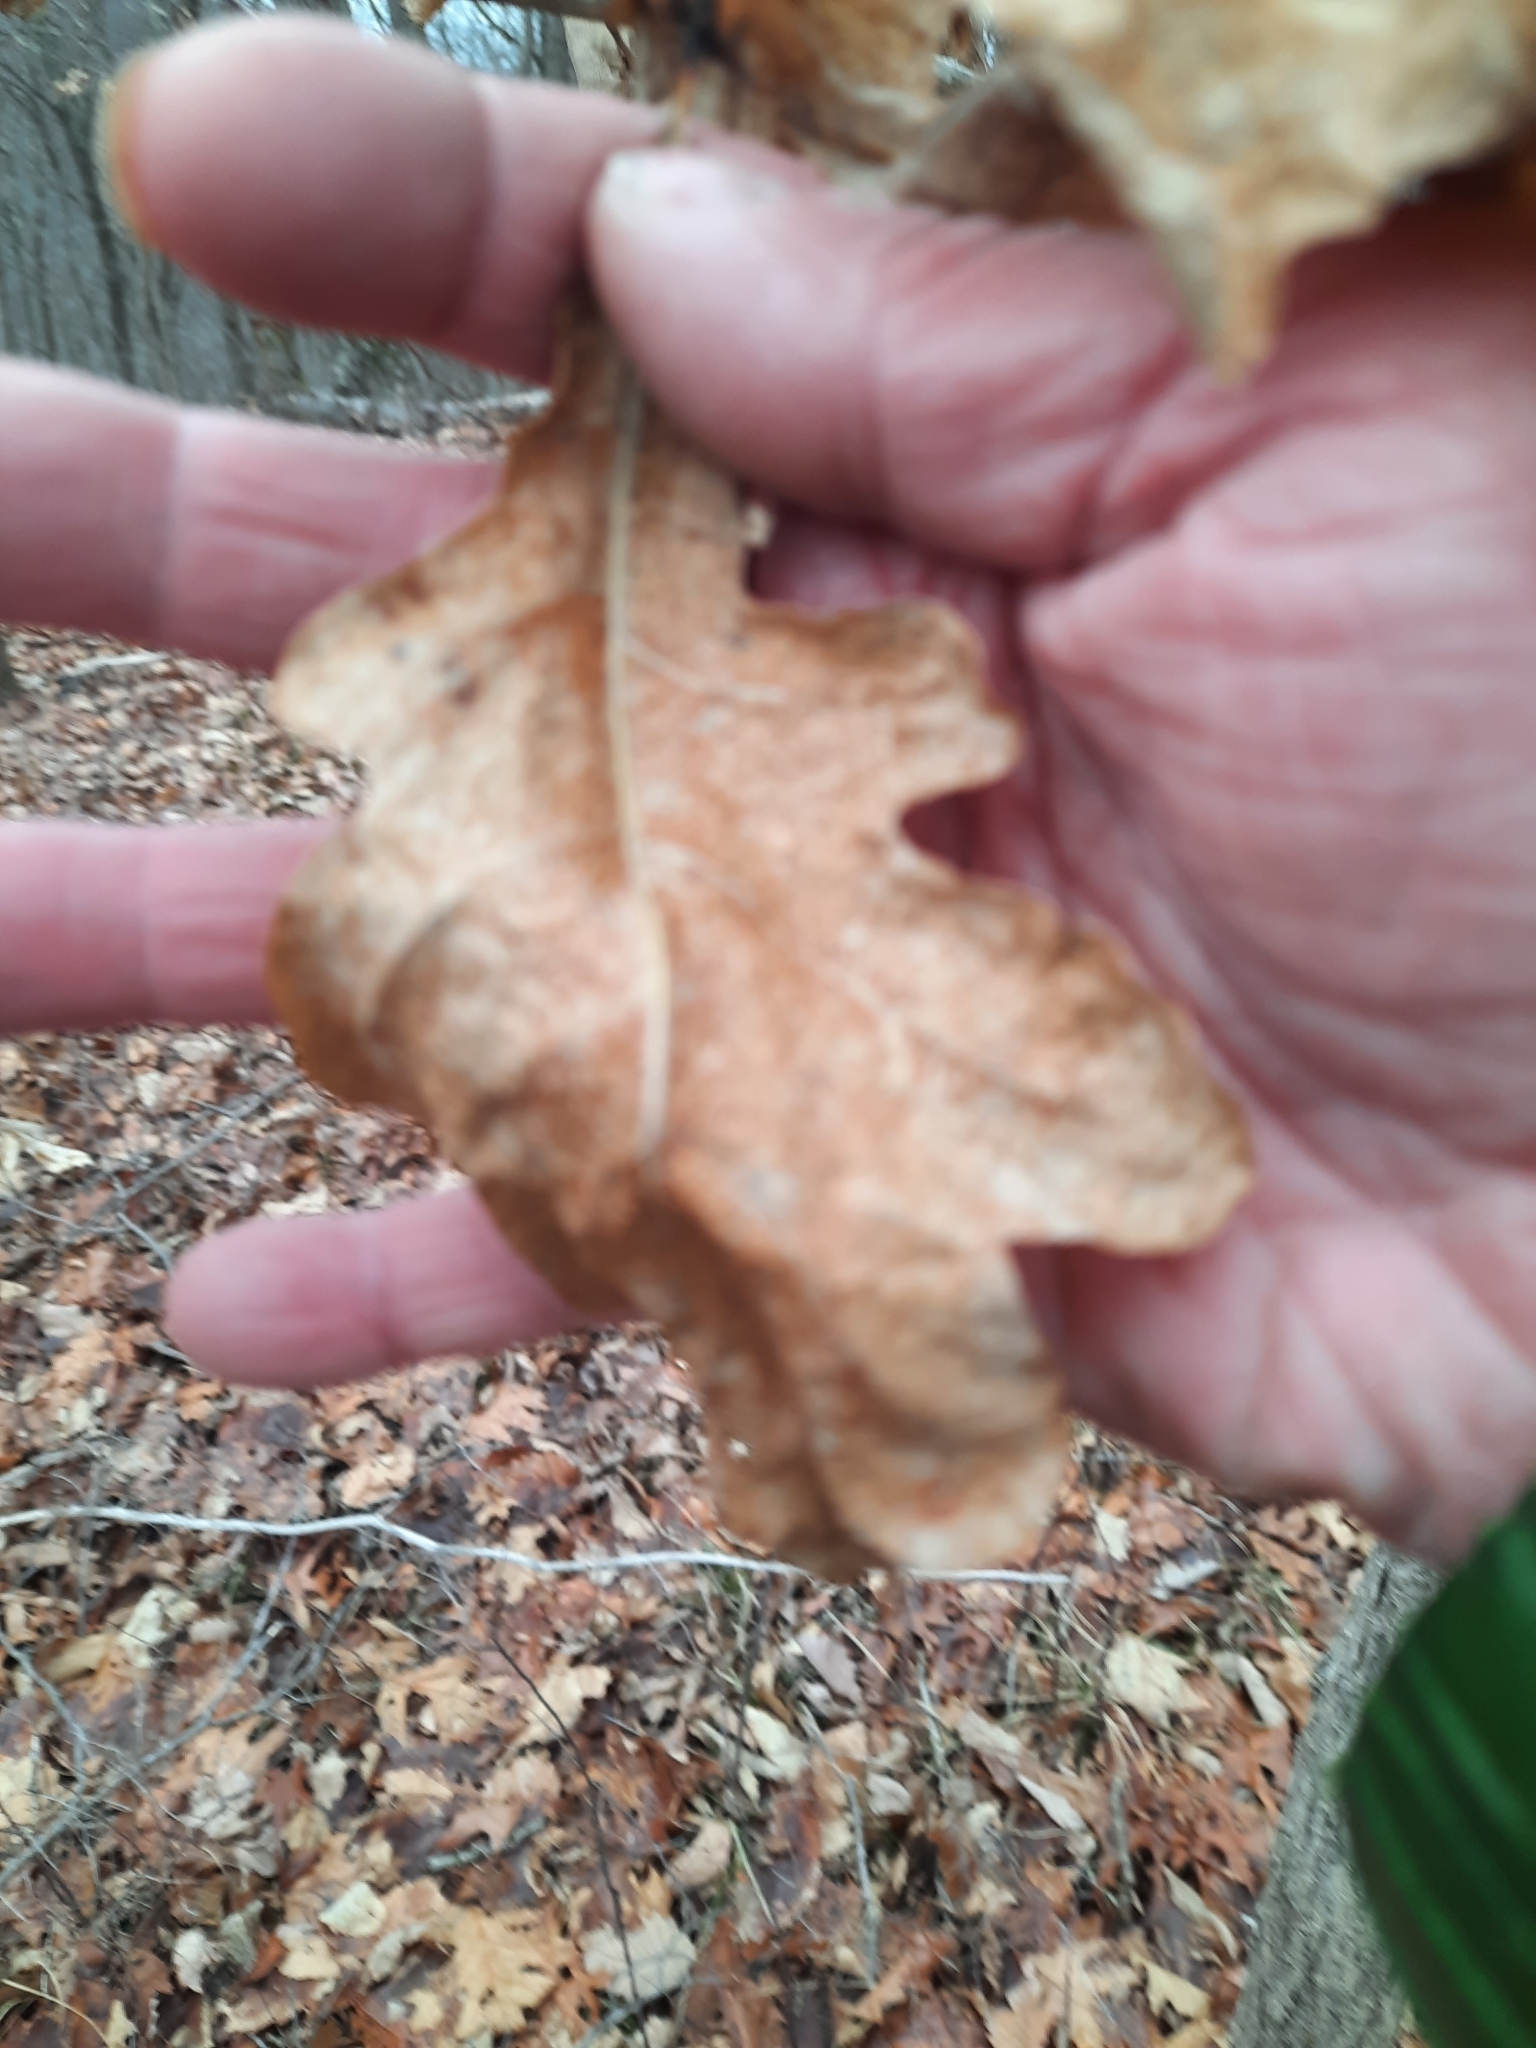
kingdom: Plantae
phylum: Tracheophyta
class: Magnoliopsida
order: Fagales
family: Fagaceae
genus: Quercus
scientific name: Quercus alba
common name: White oak
